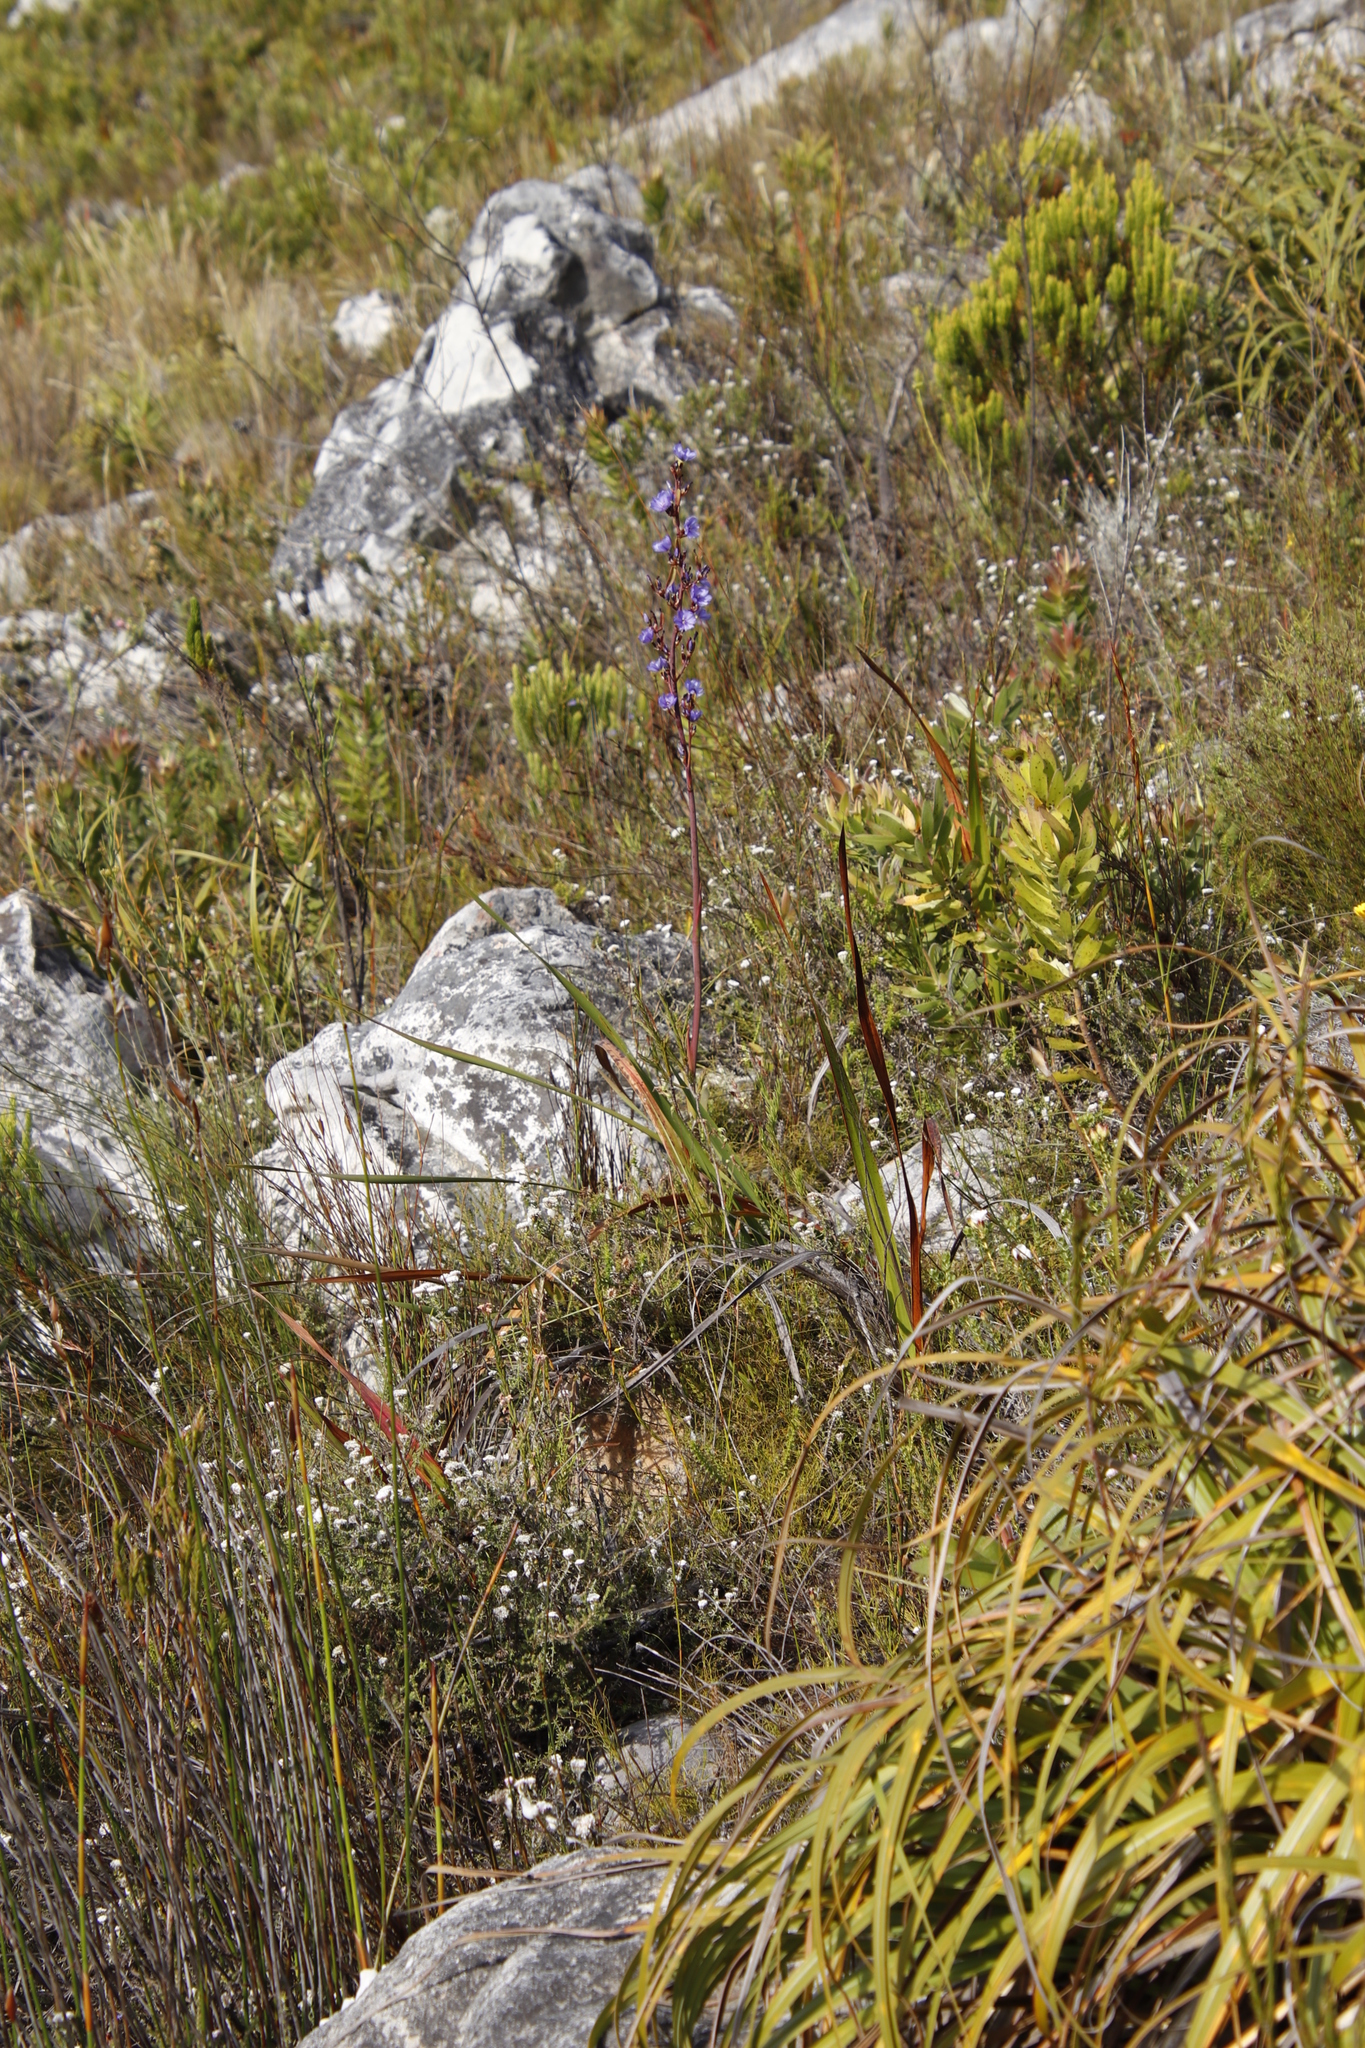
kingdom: Plantae
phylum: Tracheophyta
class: Liliopsida
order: Asparagales
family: Iridaceae
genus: Aristea
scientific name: Aristea bakeri
